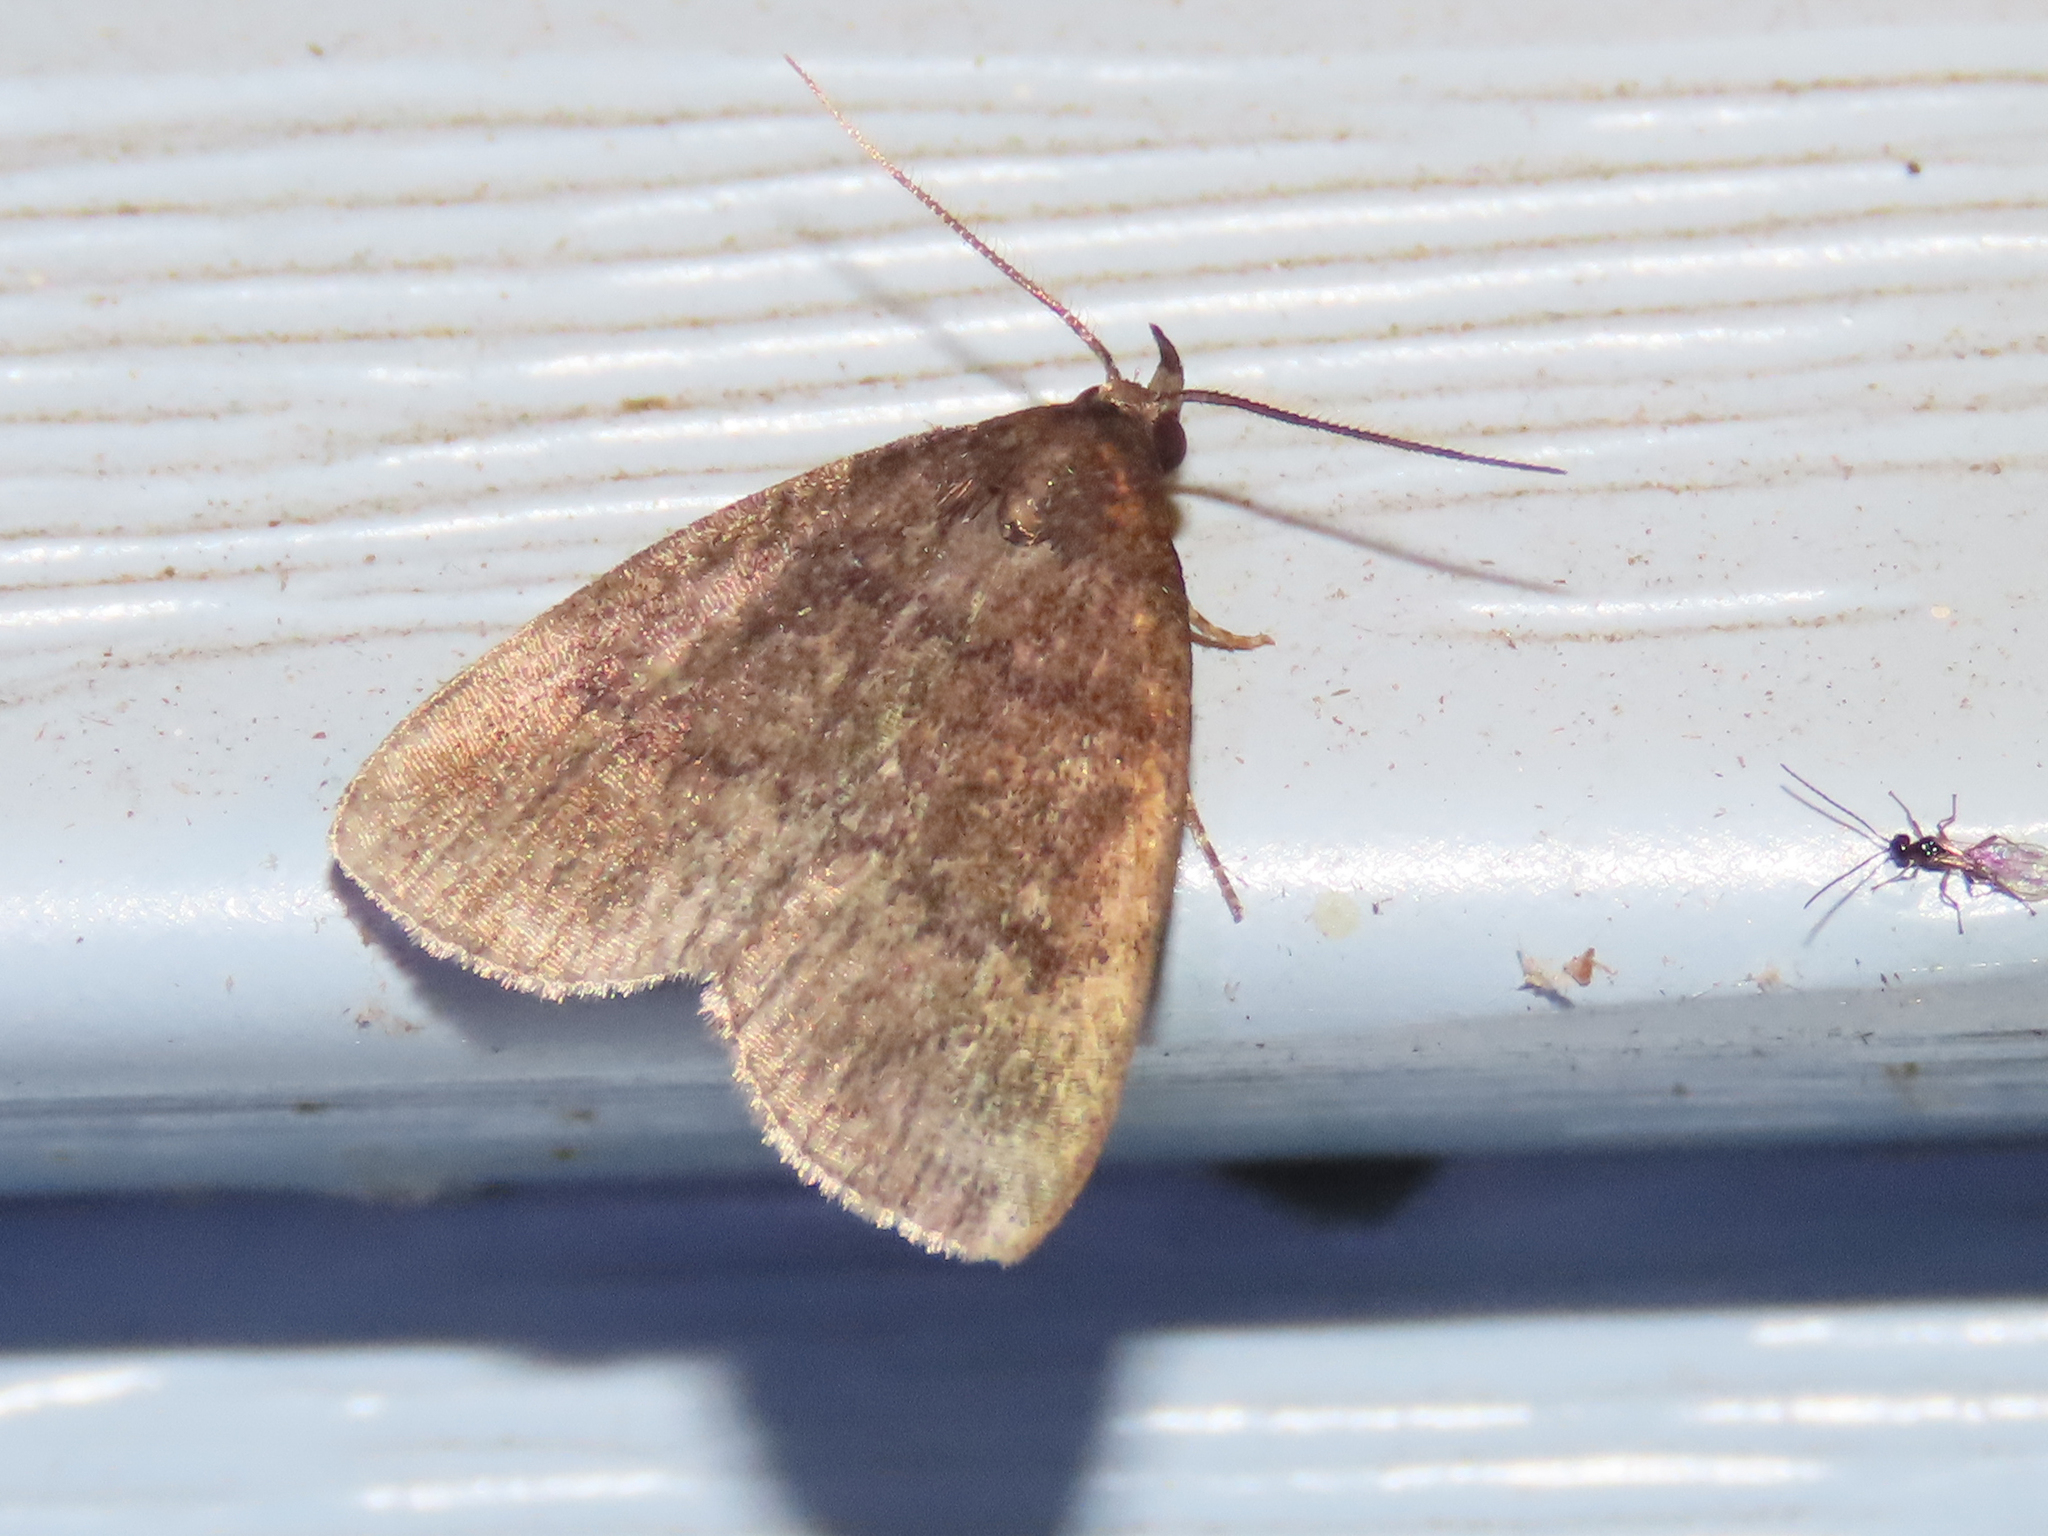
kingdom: Animalia
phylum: Arthropoda
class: Insecta
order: Lepidoptera
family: Erebidae
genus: Idia
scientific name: Idia rotundalis
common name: Rotund idia moth
